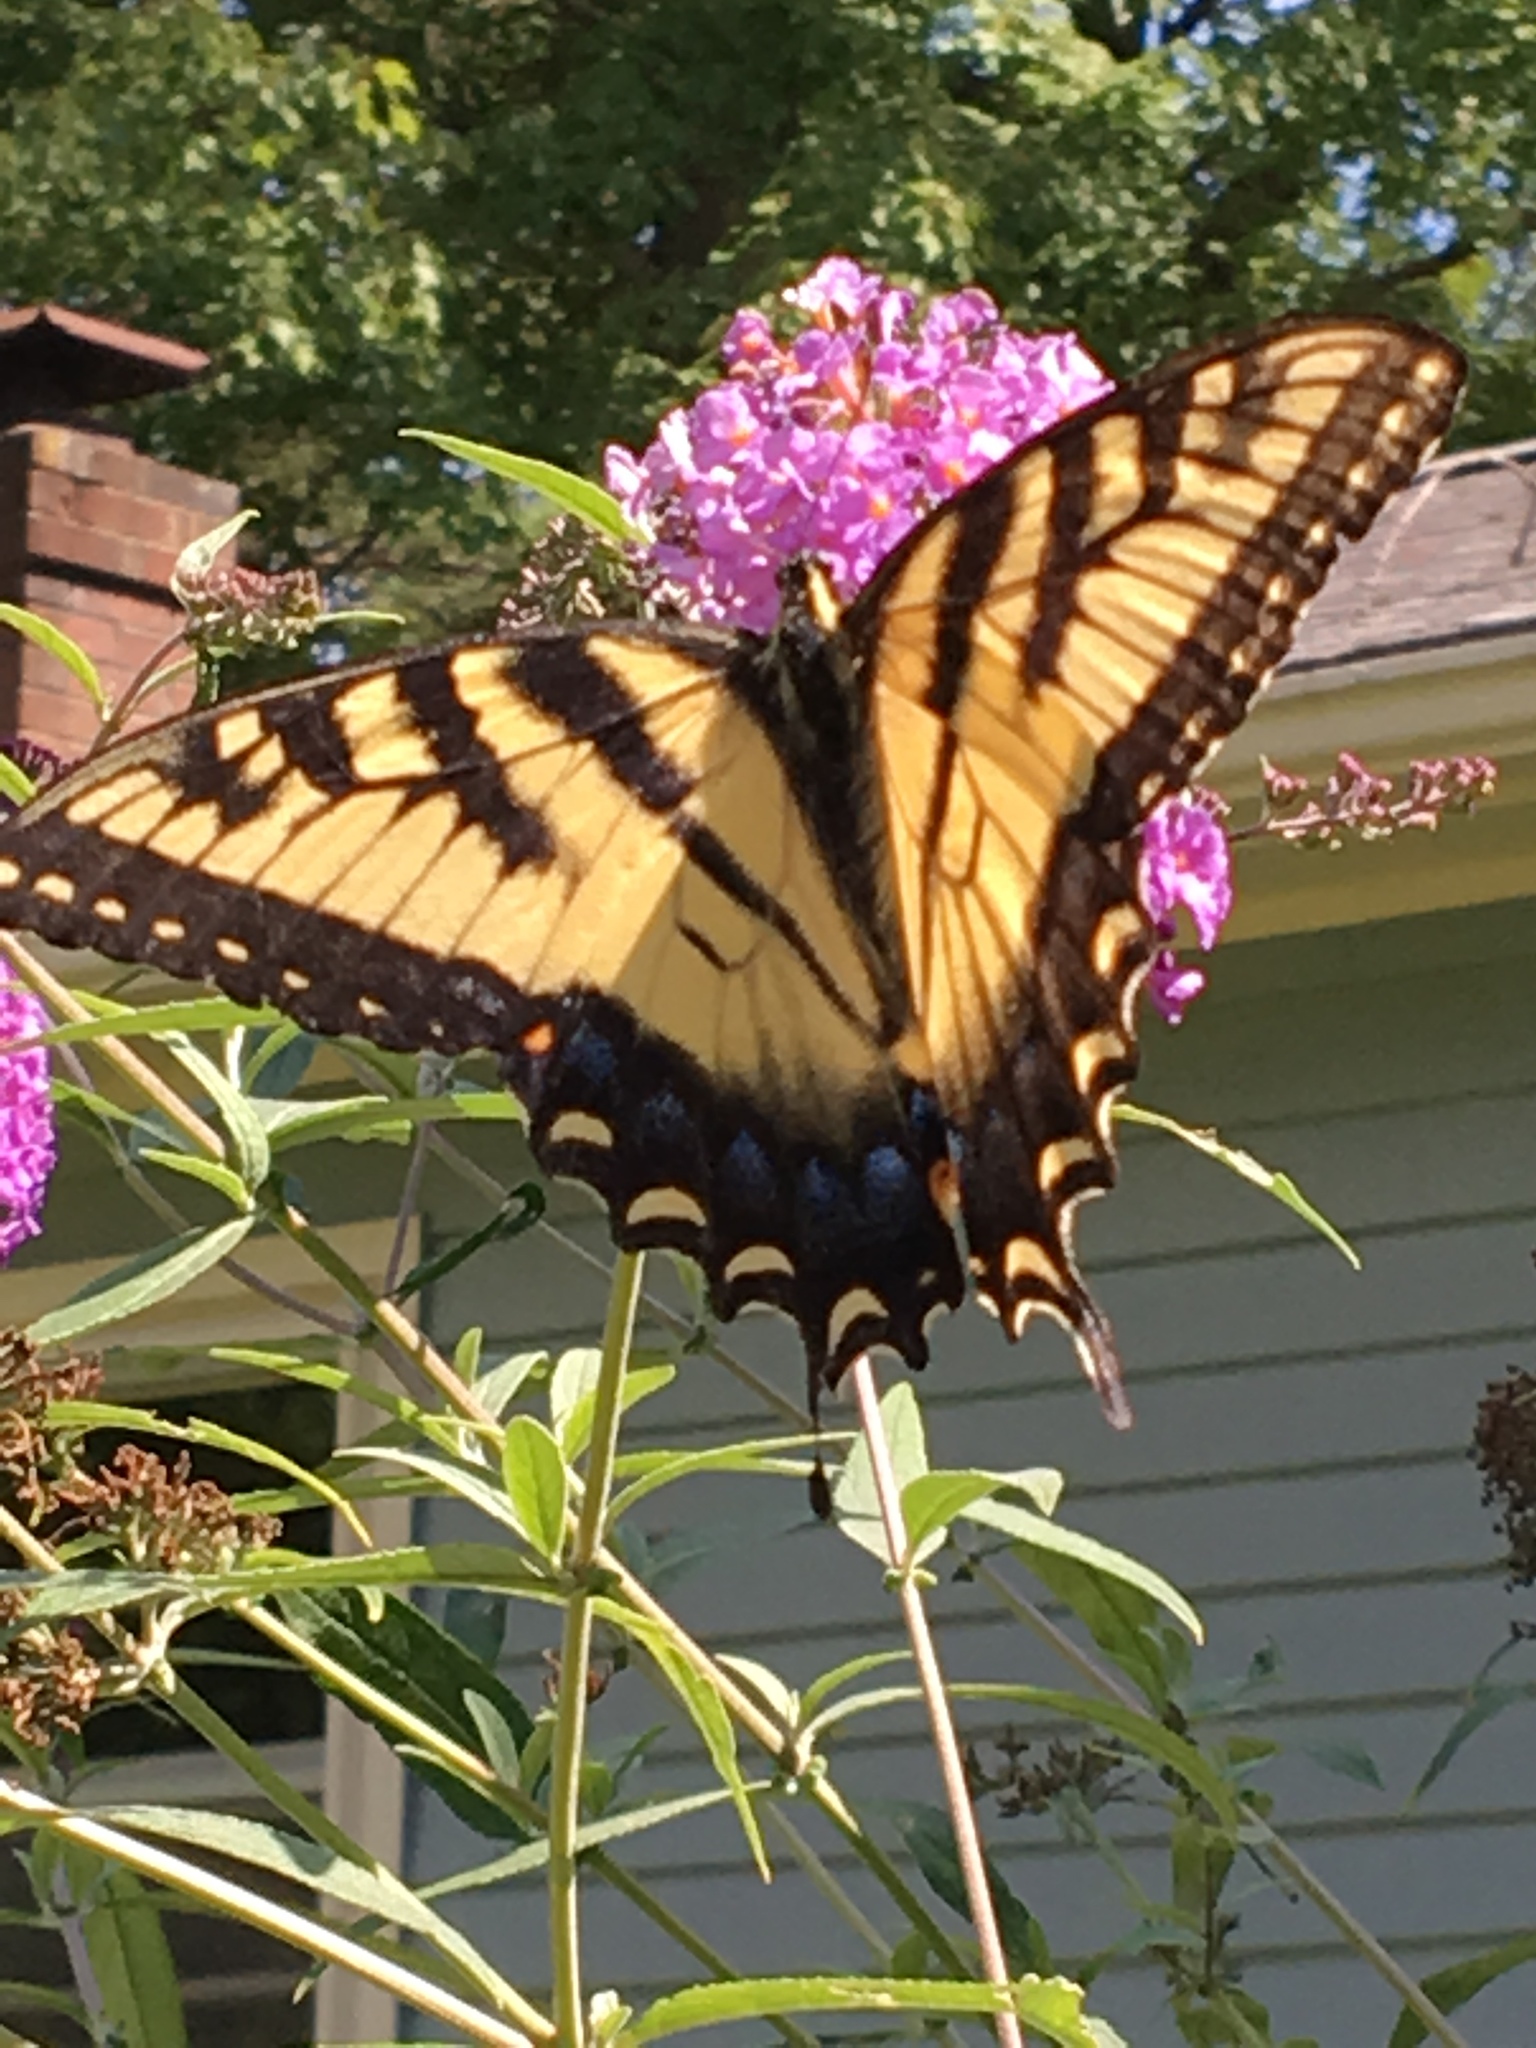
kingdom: Animalia
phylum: Arthropoda
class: Insecta
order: Lepidoptera
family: Papilionidae
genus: Papilio
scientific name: Papilio glaucus
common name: Tiger swallowtail
